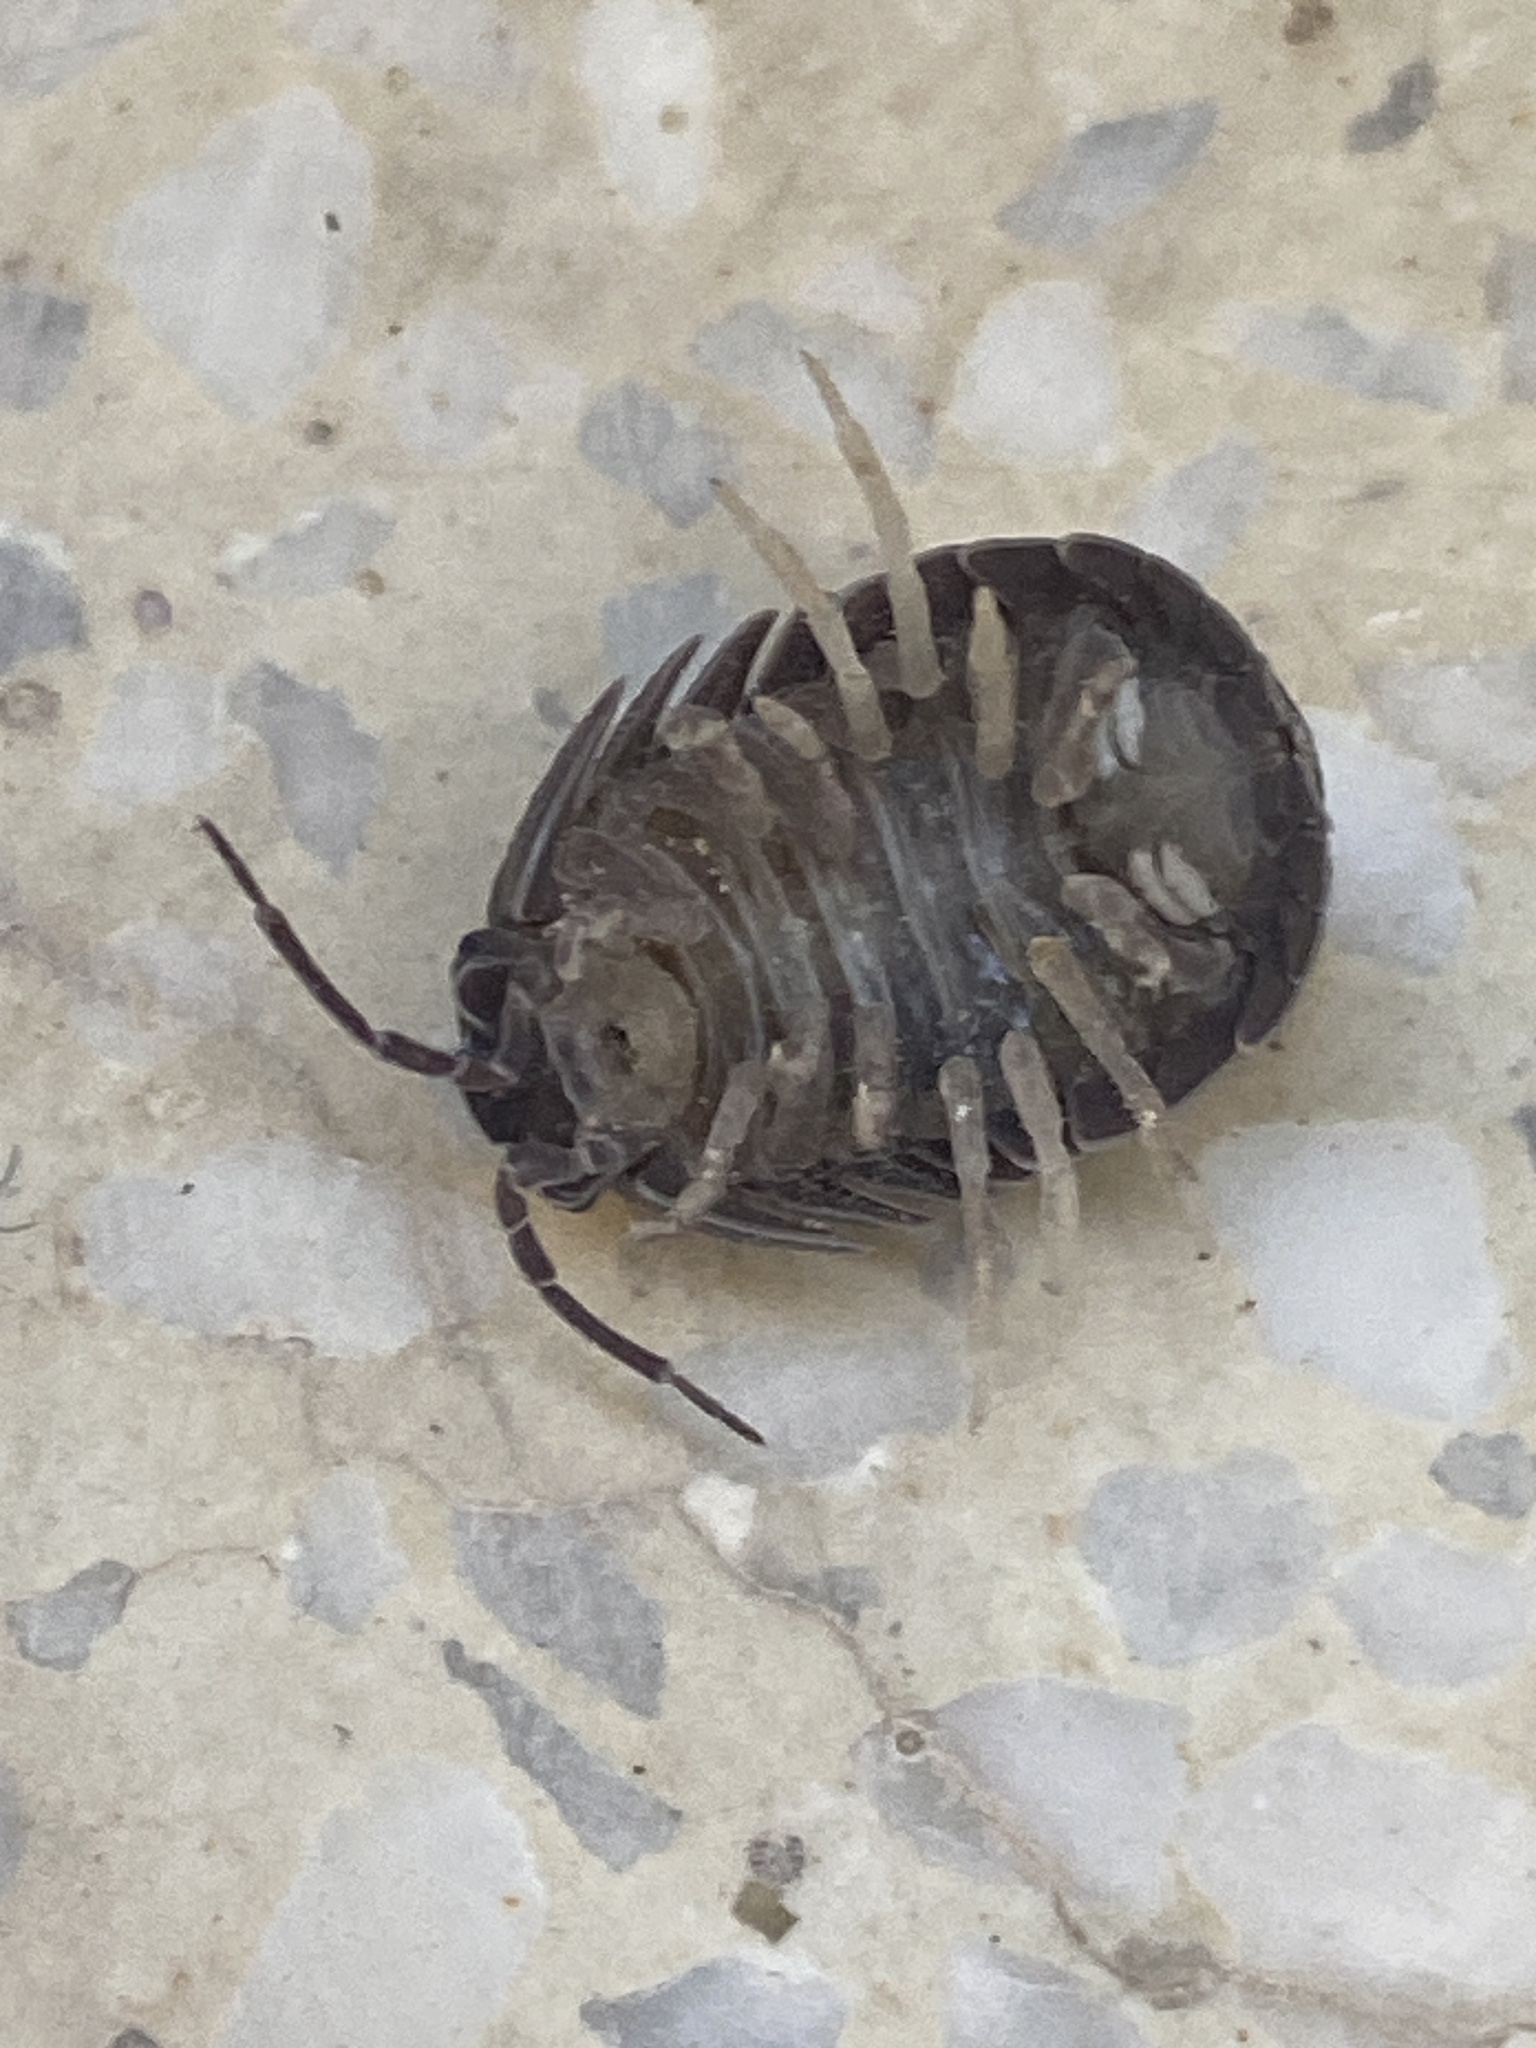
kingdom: Animalia
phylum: Arthropoda
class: Malacostraca
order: Isopoda
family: Armadillidiidae
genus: Armadillidium
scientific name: Armadillidium schmalfussi
